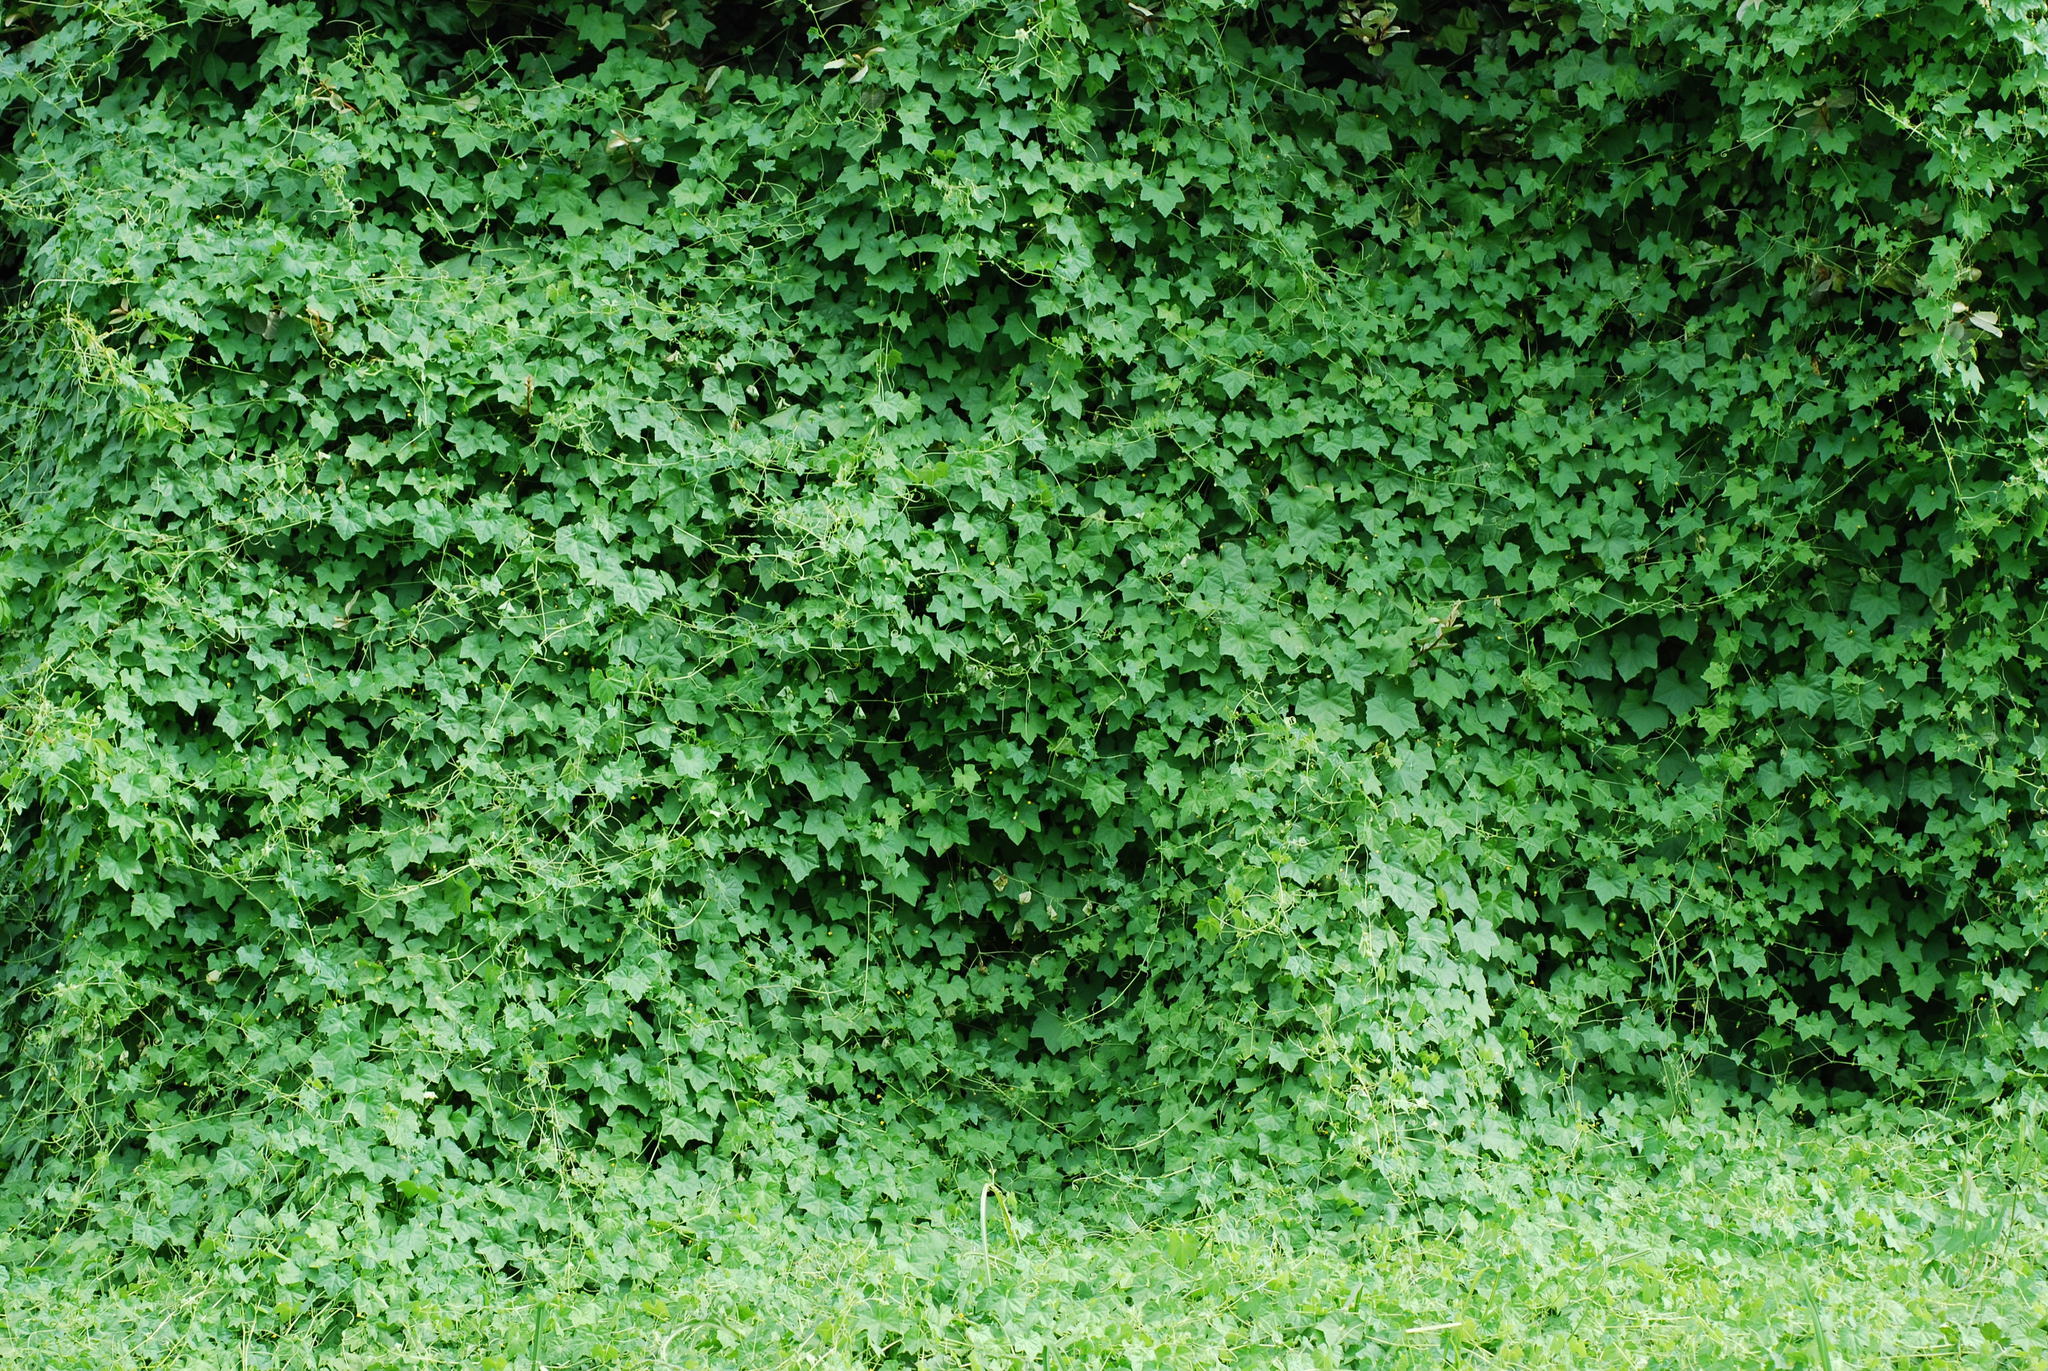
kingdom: Plantae
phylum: Tracheophyta
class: Magnoliopsida
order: Cucurbitales
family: Cucurbitaceae
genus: Melothria
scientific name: Melothria pendula
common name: Creeping-cucumber
